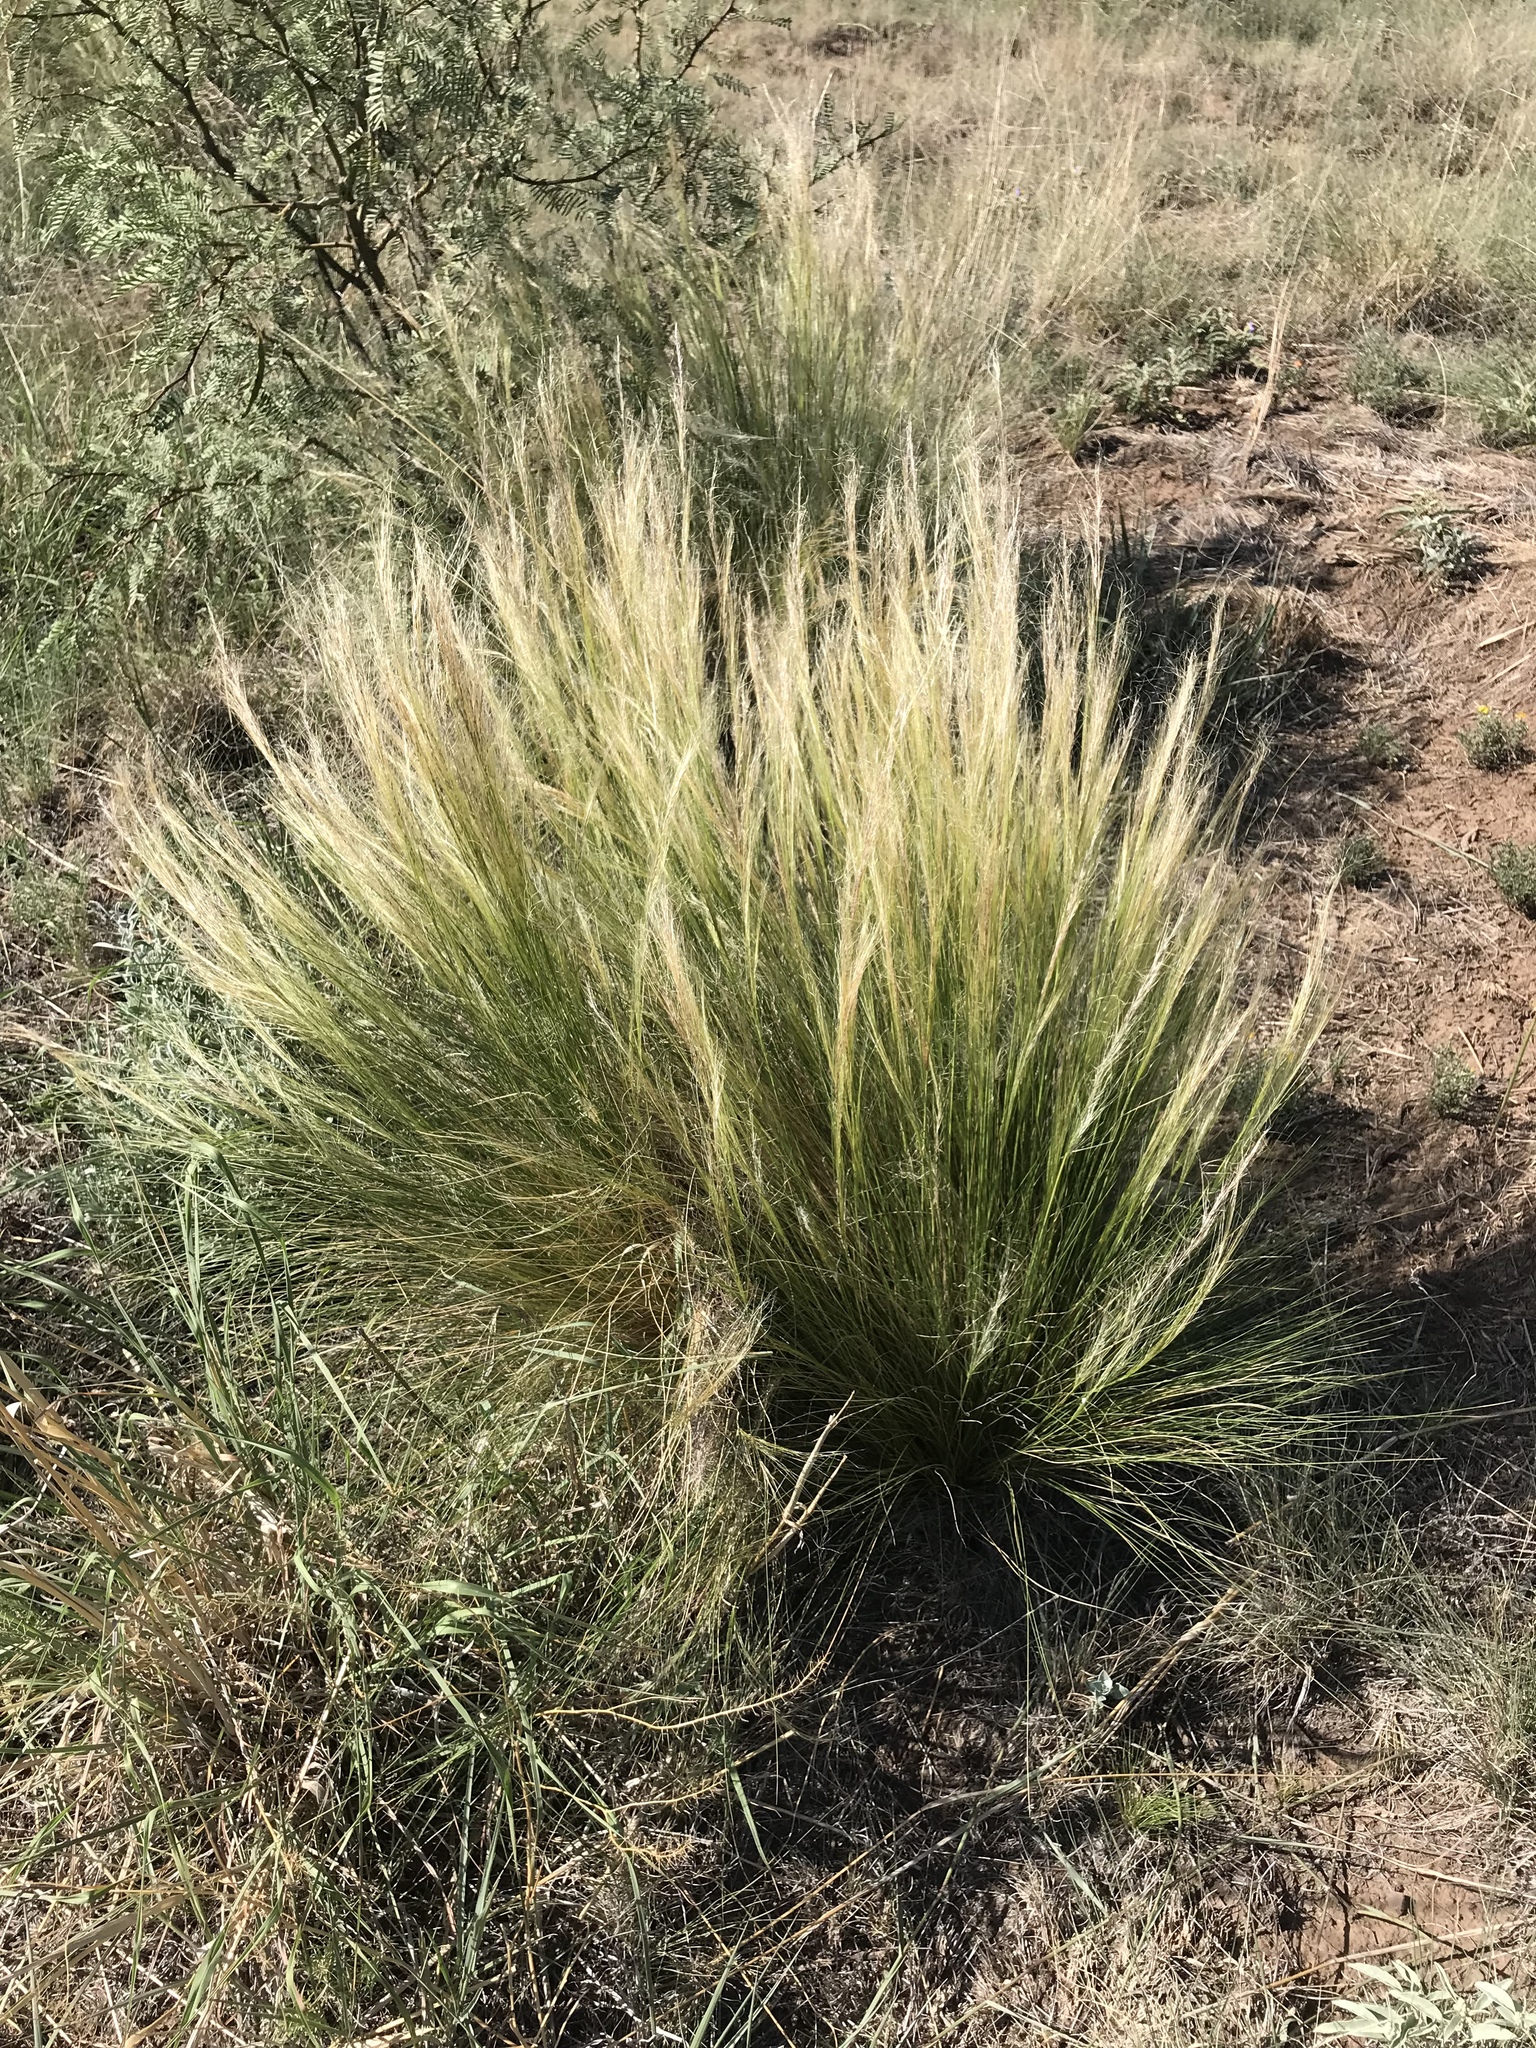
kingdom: Plantae
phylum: Tracheophyta
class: Liliopsida
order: Poales
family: Poaceae
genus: Nassella
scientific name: Nassella tenuissima
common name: Argentine needlegrass
